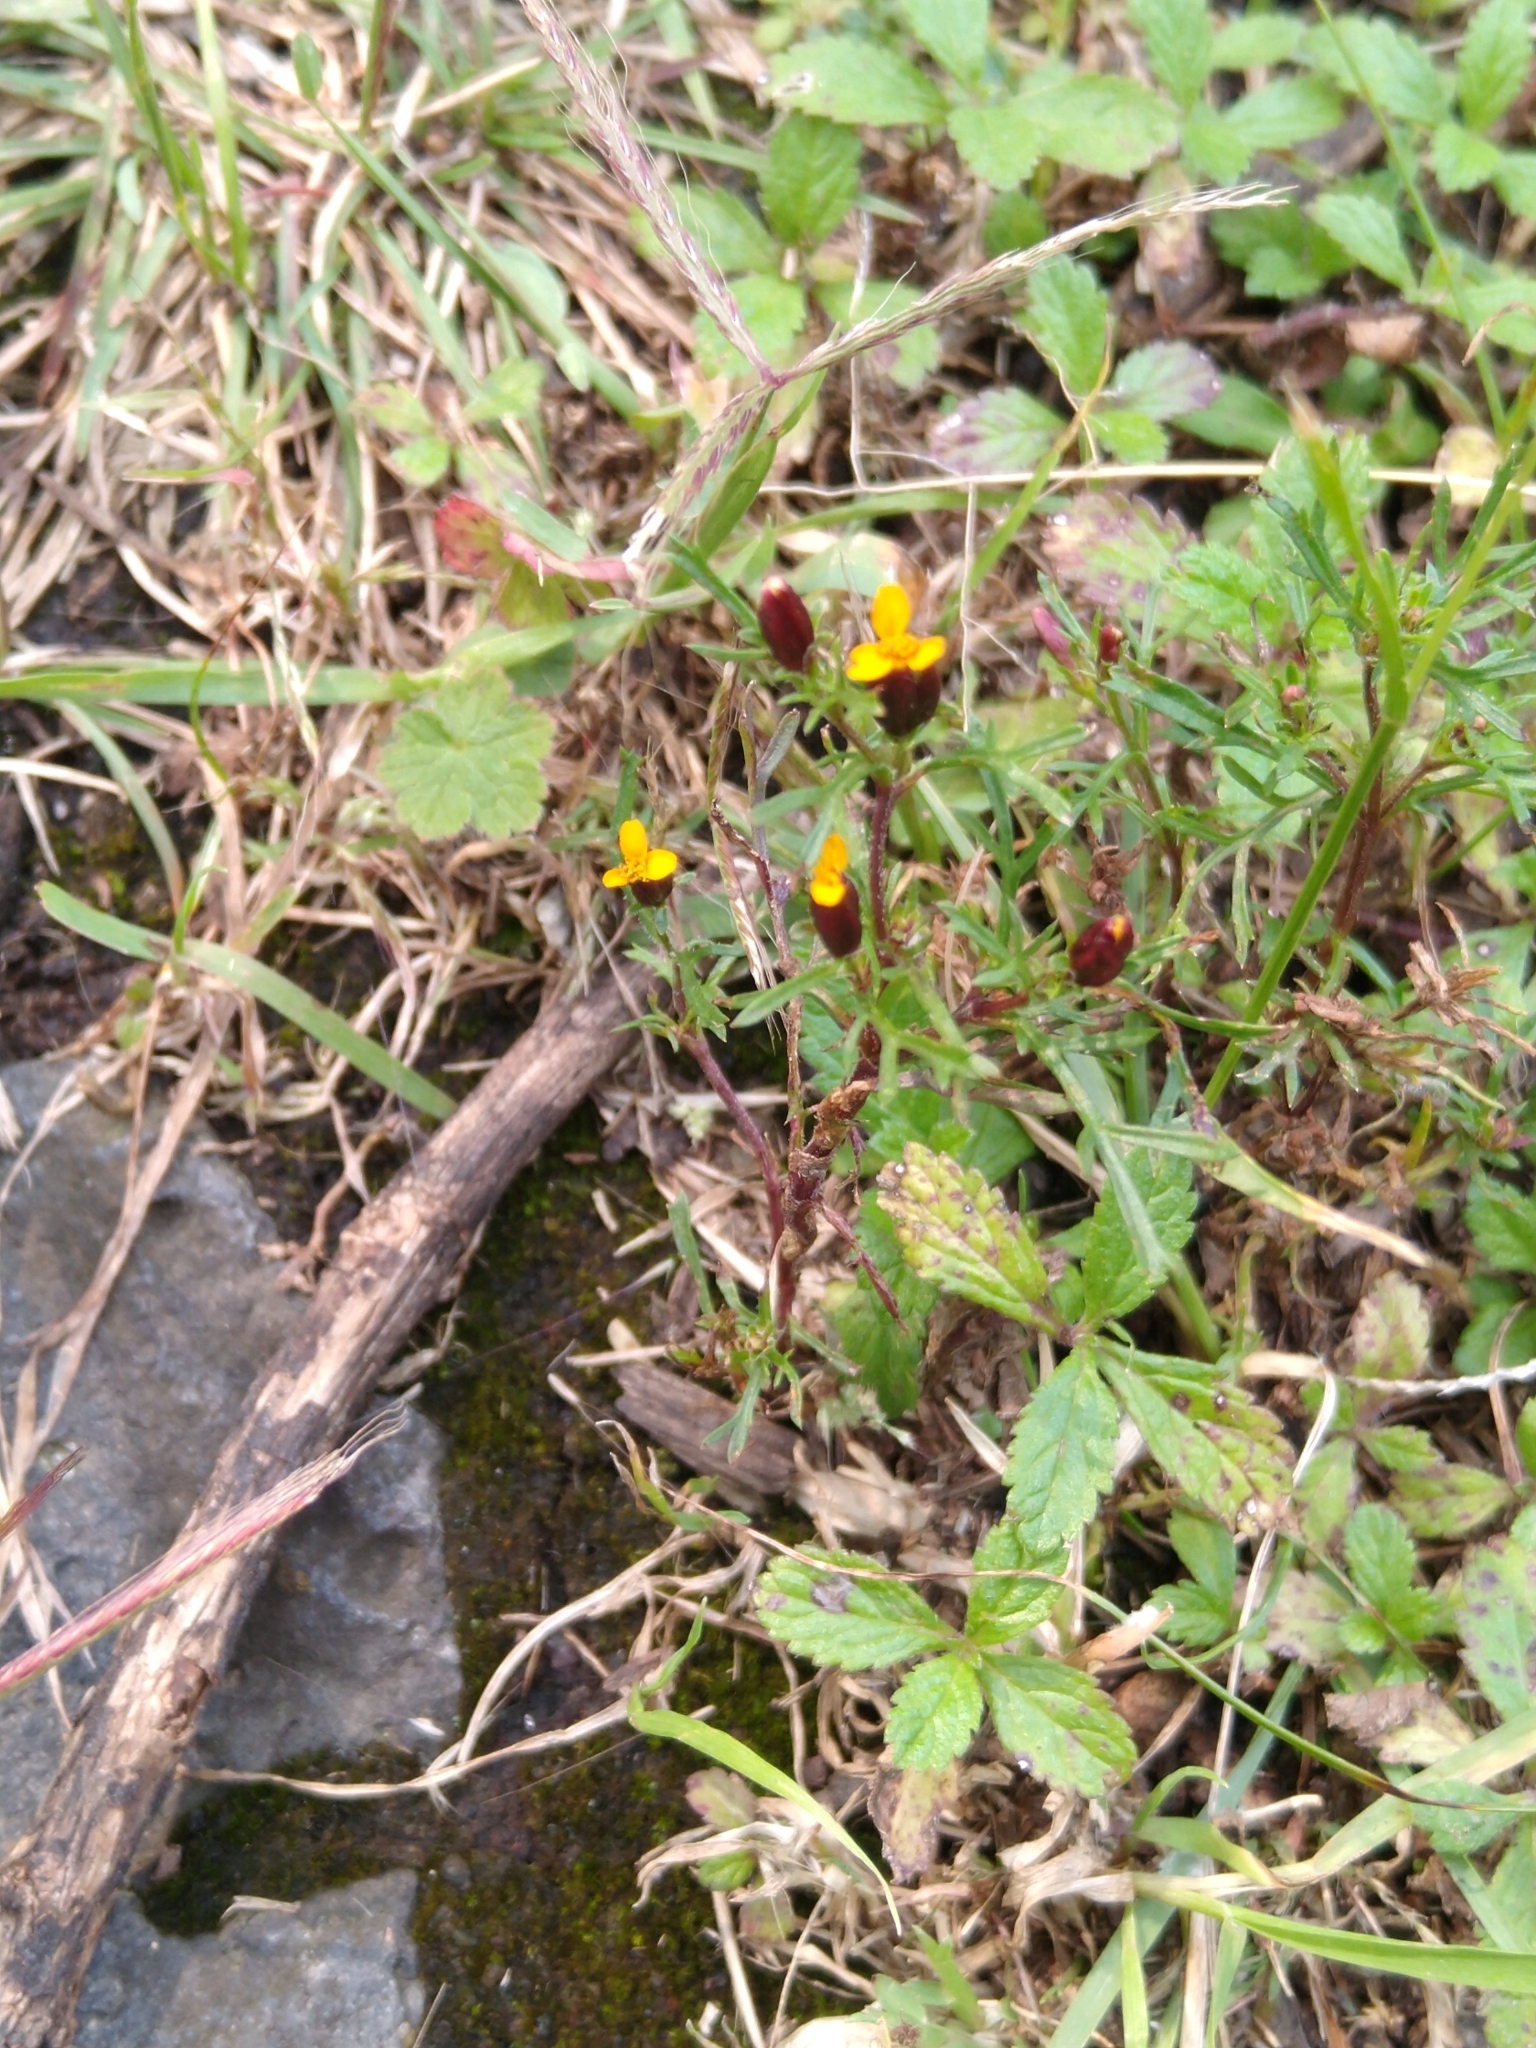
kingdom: Plantae
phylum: Tracheophyta
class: Magnoliopsida
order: Asterales
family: Asteraceae
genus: Dyssodia
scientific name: Dyssodia papposa
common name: Dogweed
